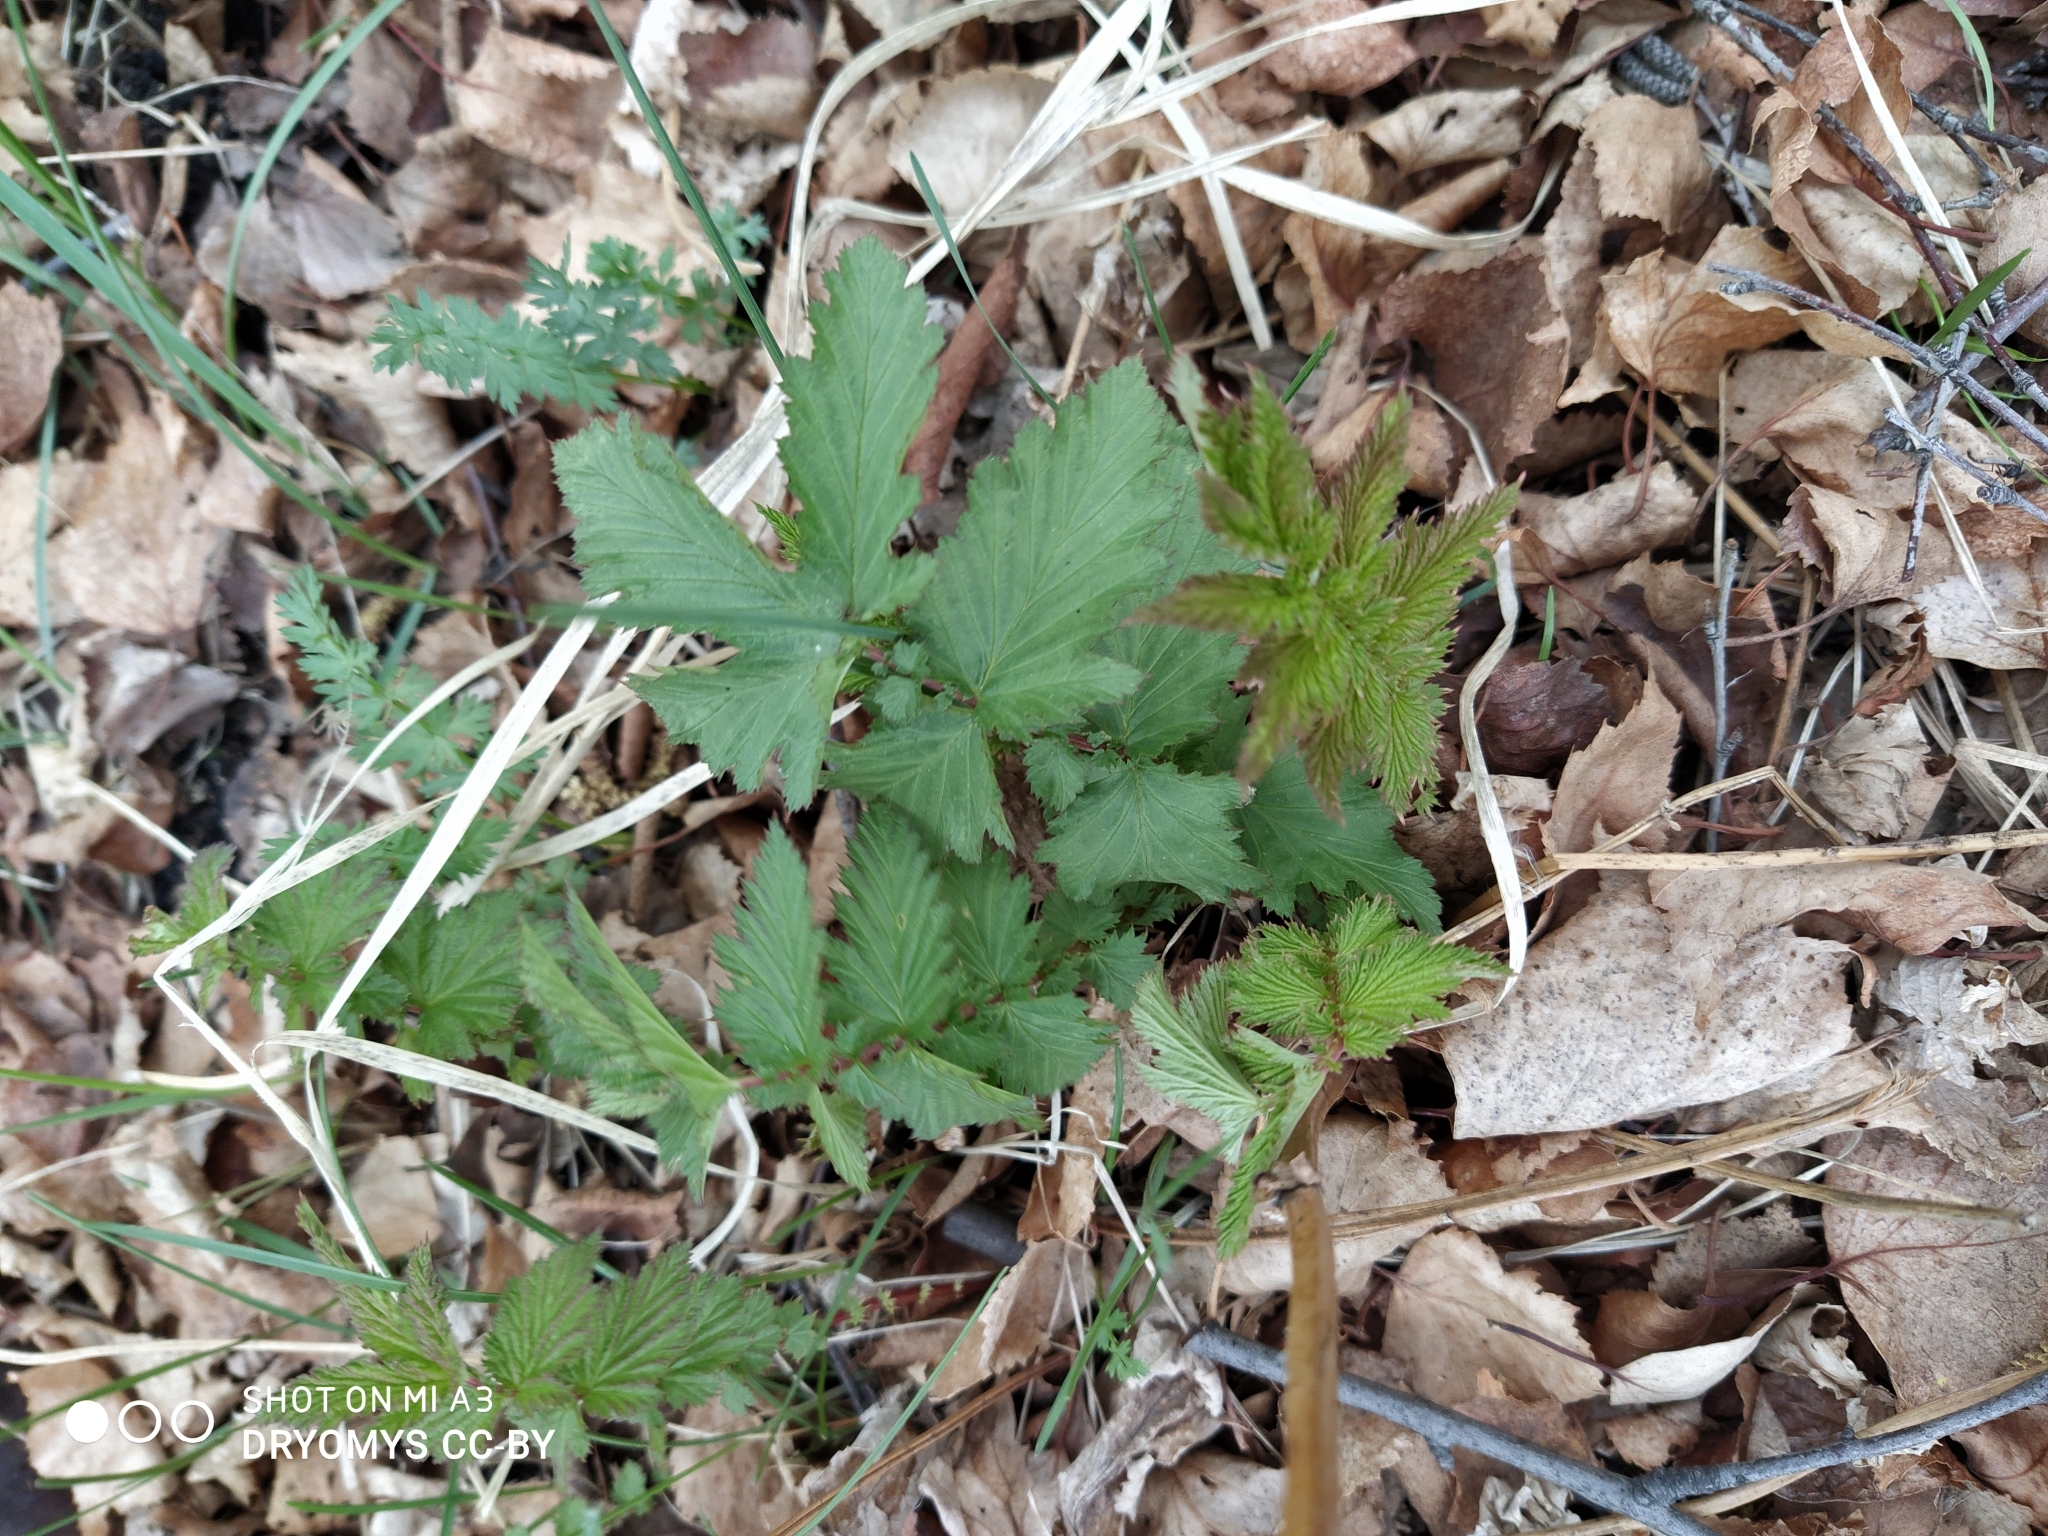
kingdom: Plantae
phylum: Tracheophyta
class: Magnoliopsida
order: Rosales
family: Rosaceae
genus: Filipendula
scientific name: Filipendula ulmaria
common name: Meadowsweet
